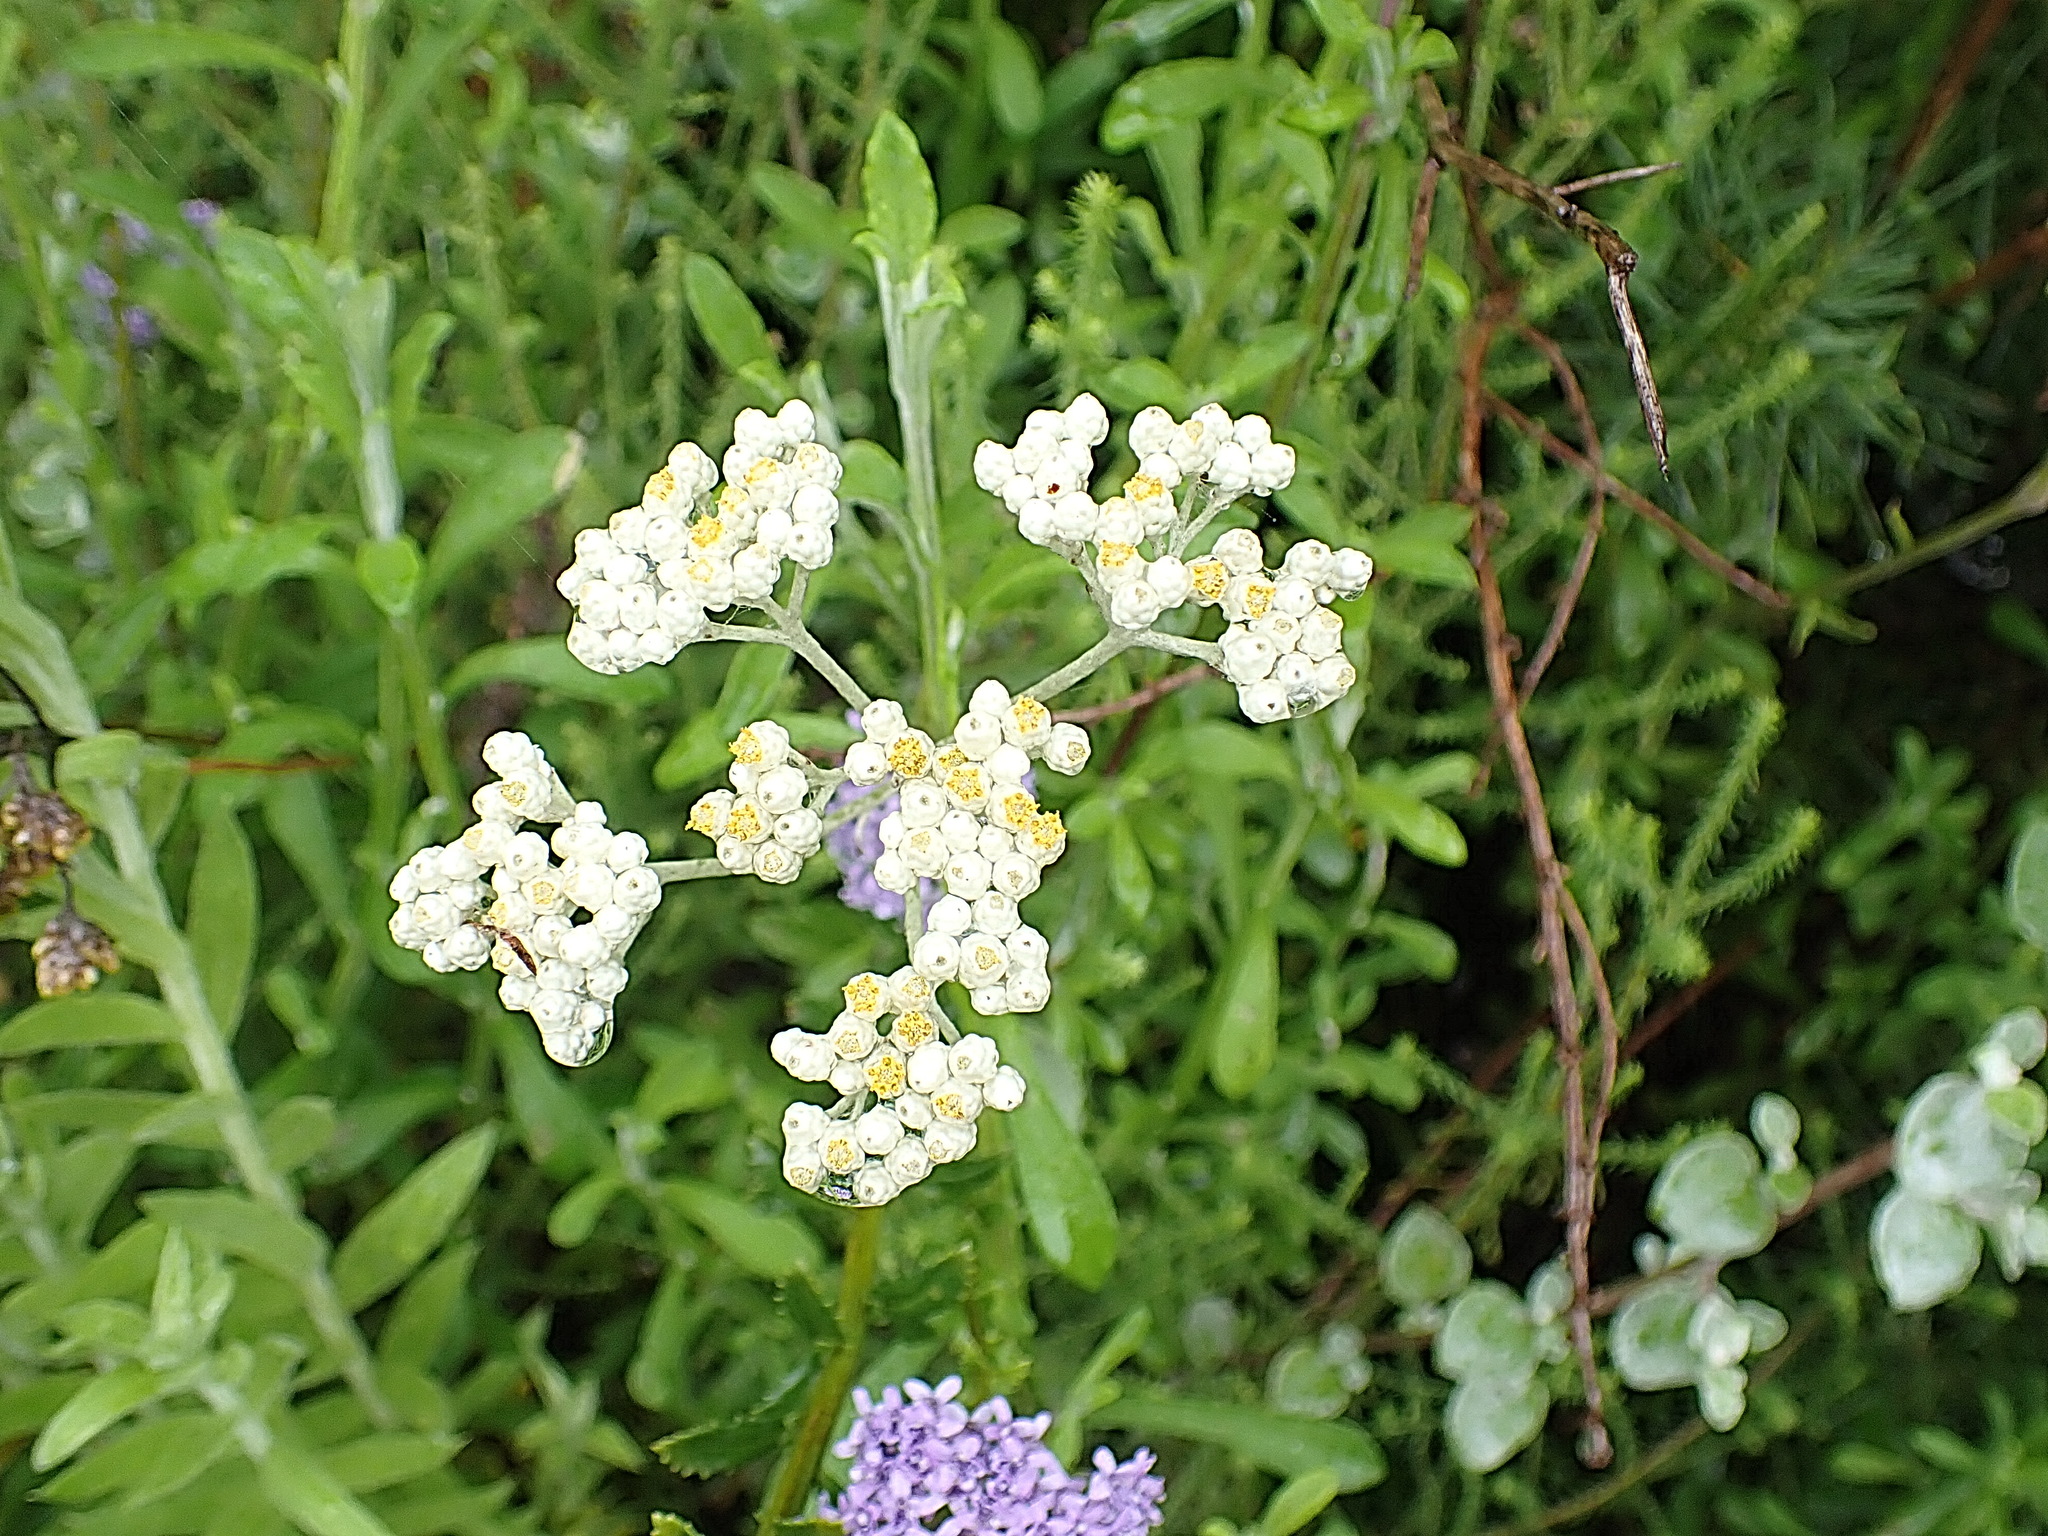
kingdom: Plantae
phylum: Tracheophyta
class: Magnoliopsida
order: Asterales
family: Asteraceae
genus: Helichrysum
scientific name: Helichrysum petiolare
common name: Licorice-plant
